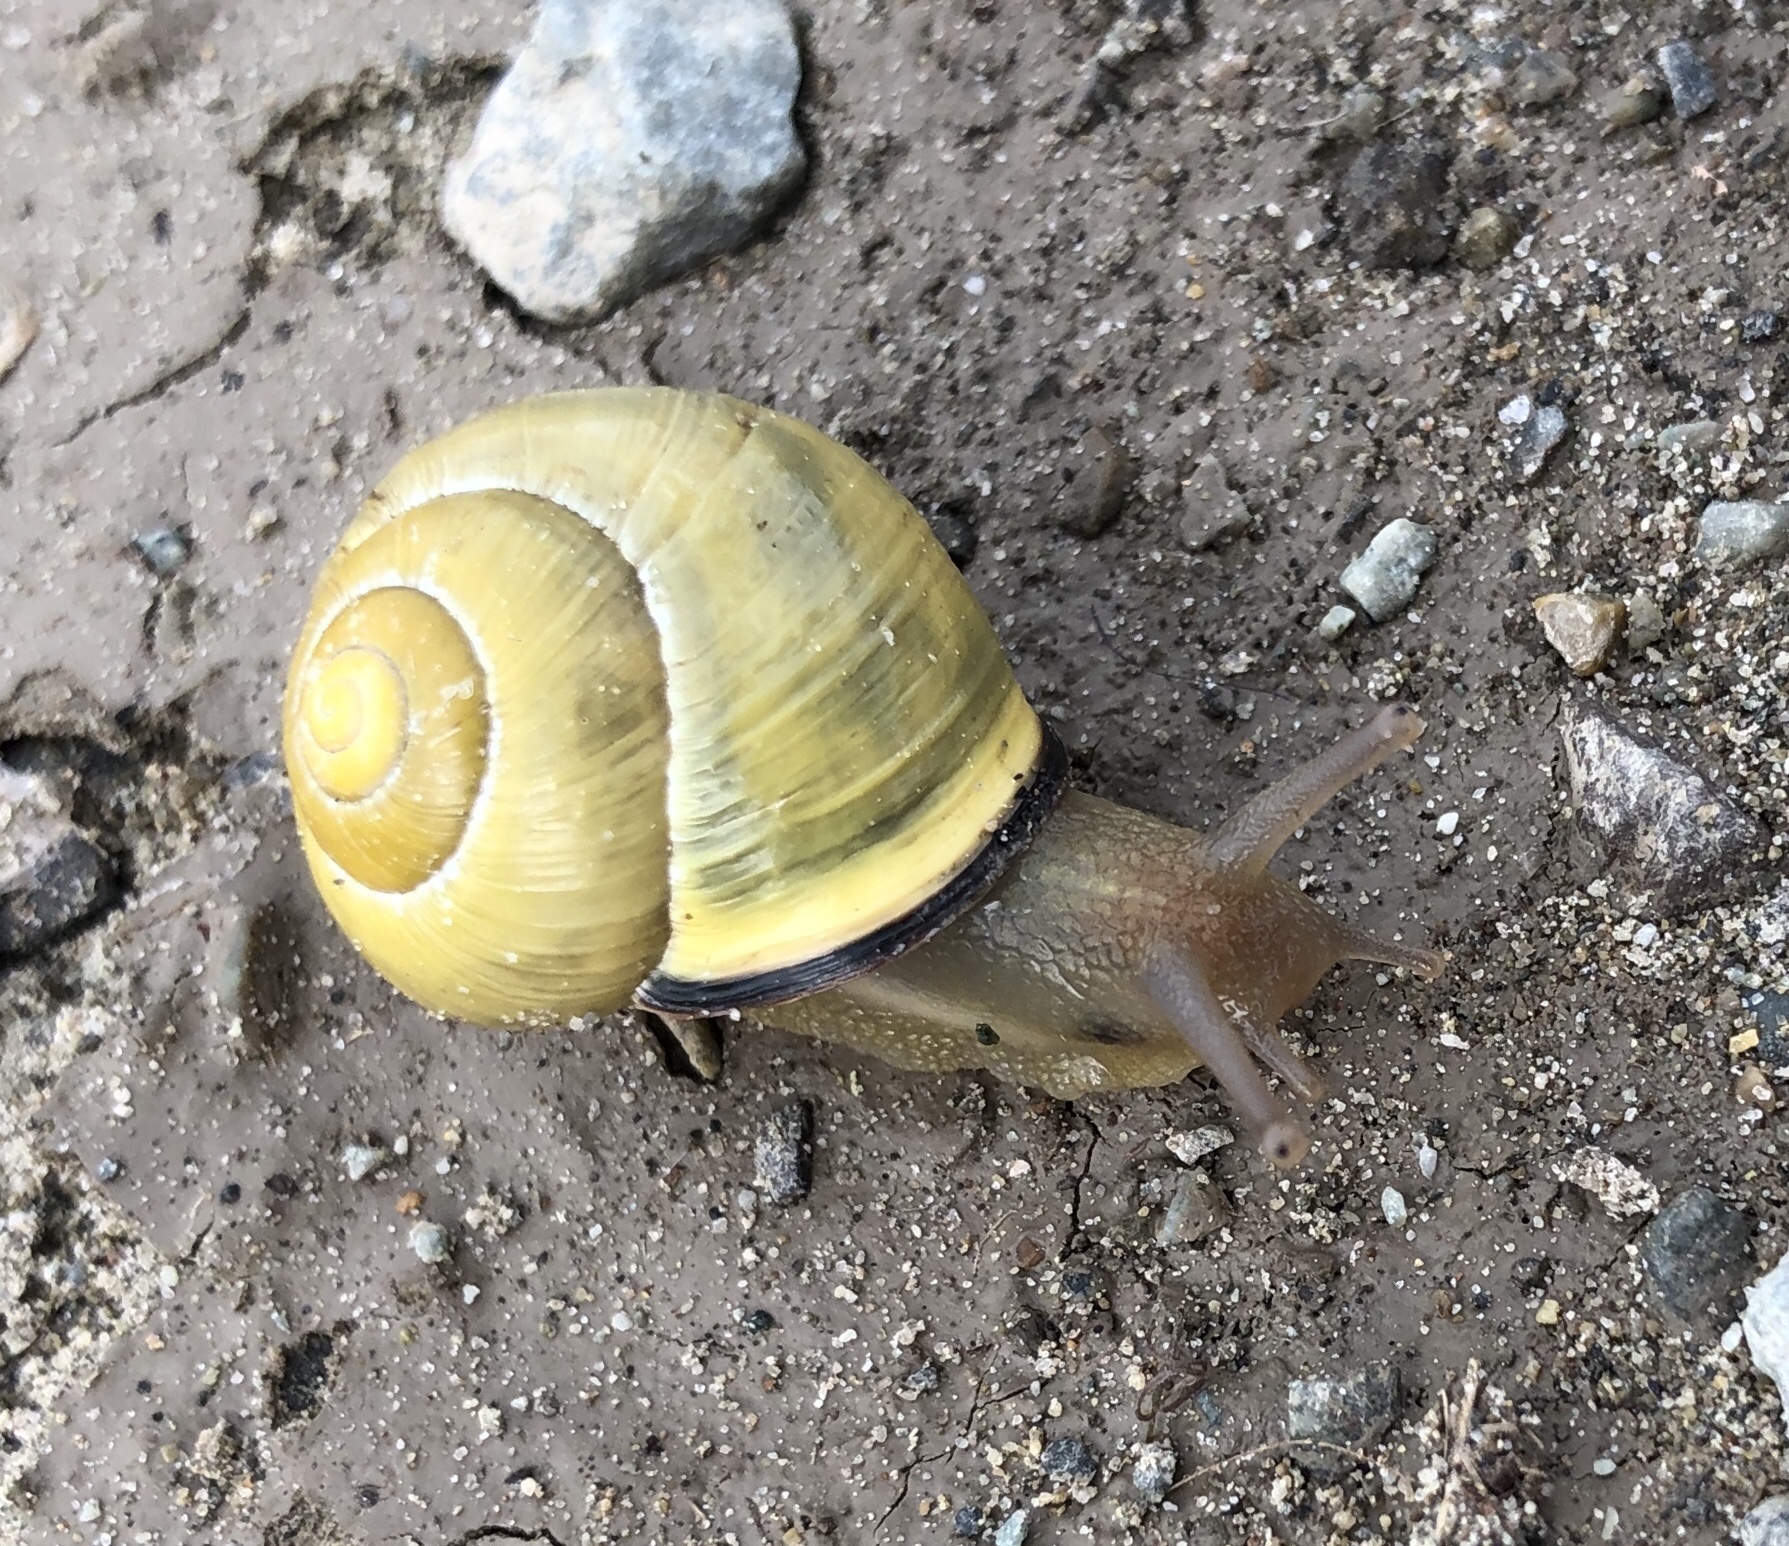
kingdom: Animalia
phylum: Mollusca
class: Gastropoda
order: Stylommatophora
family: Helicidae
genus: Cepaea
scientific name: Cepaea nemoralis
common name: Grovesnail
